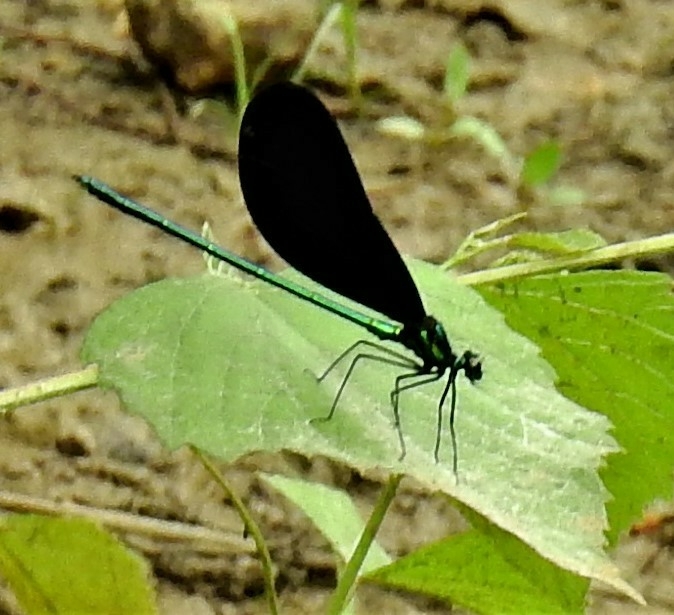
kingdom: Animalia
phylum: Arthropoda
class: Insecta
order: Odonata
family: Calopterygidae
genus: Calopteryx
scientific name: Calopteryx maculata
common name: Ebony jewelwing
